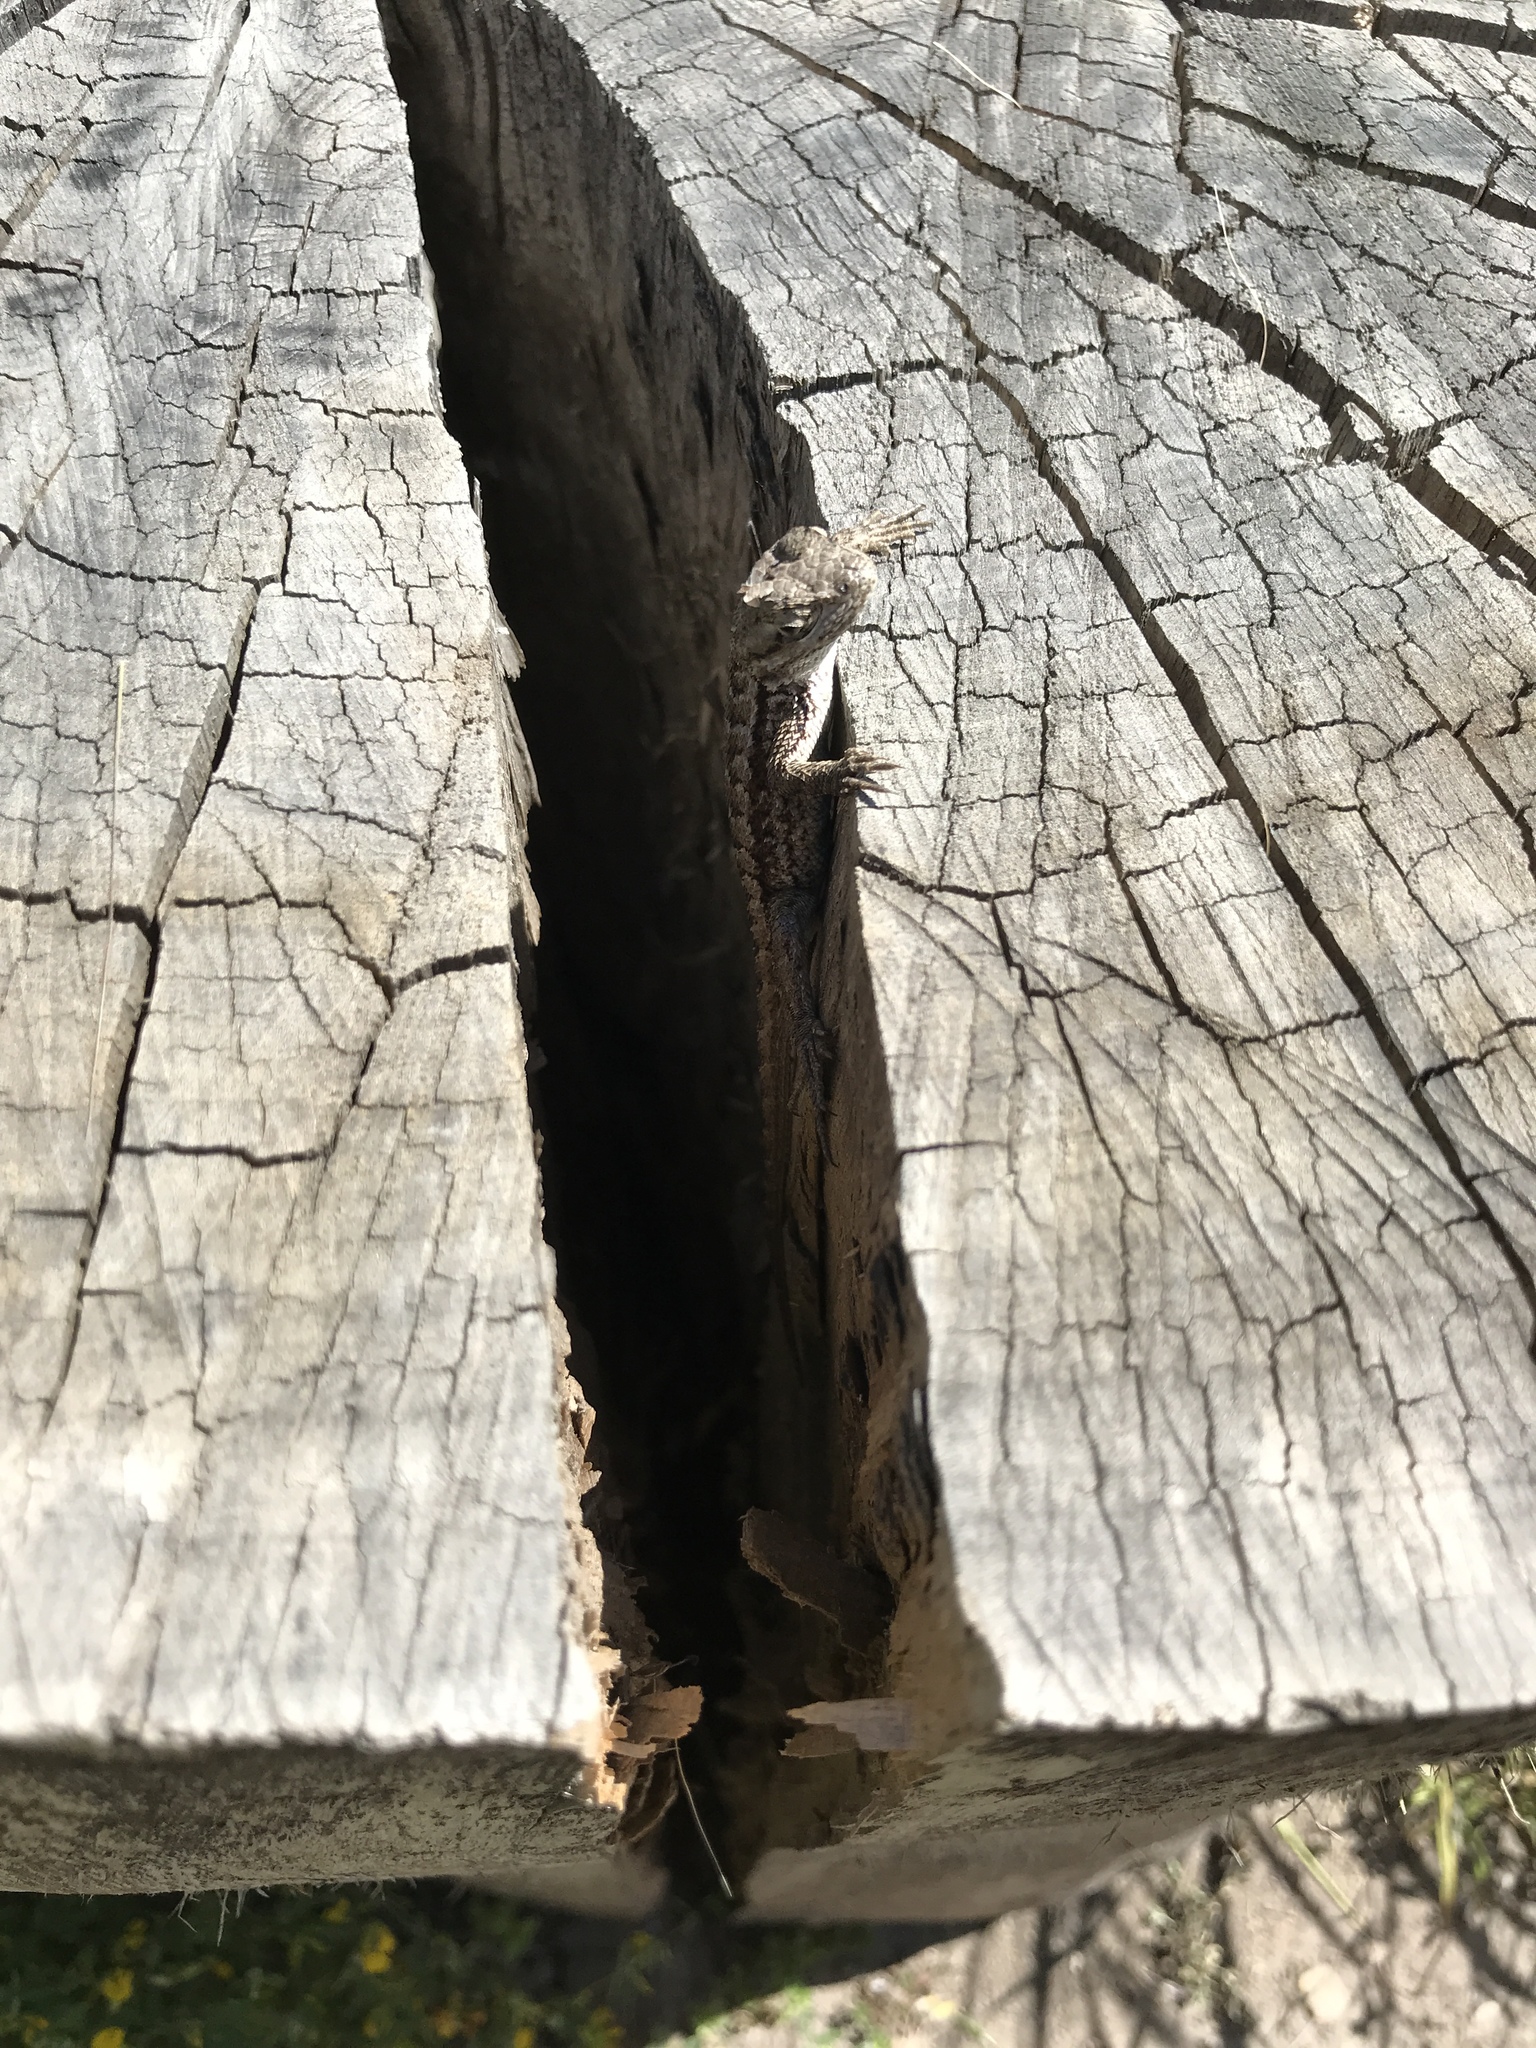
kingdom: Animalia
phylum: Chordata
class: Squamata
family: Phrynosomatidae
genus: Sceloporus
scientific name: Sceloporus occidentalis
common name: Western fence lizard
